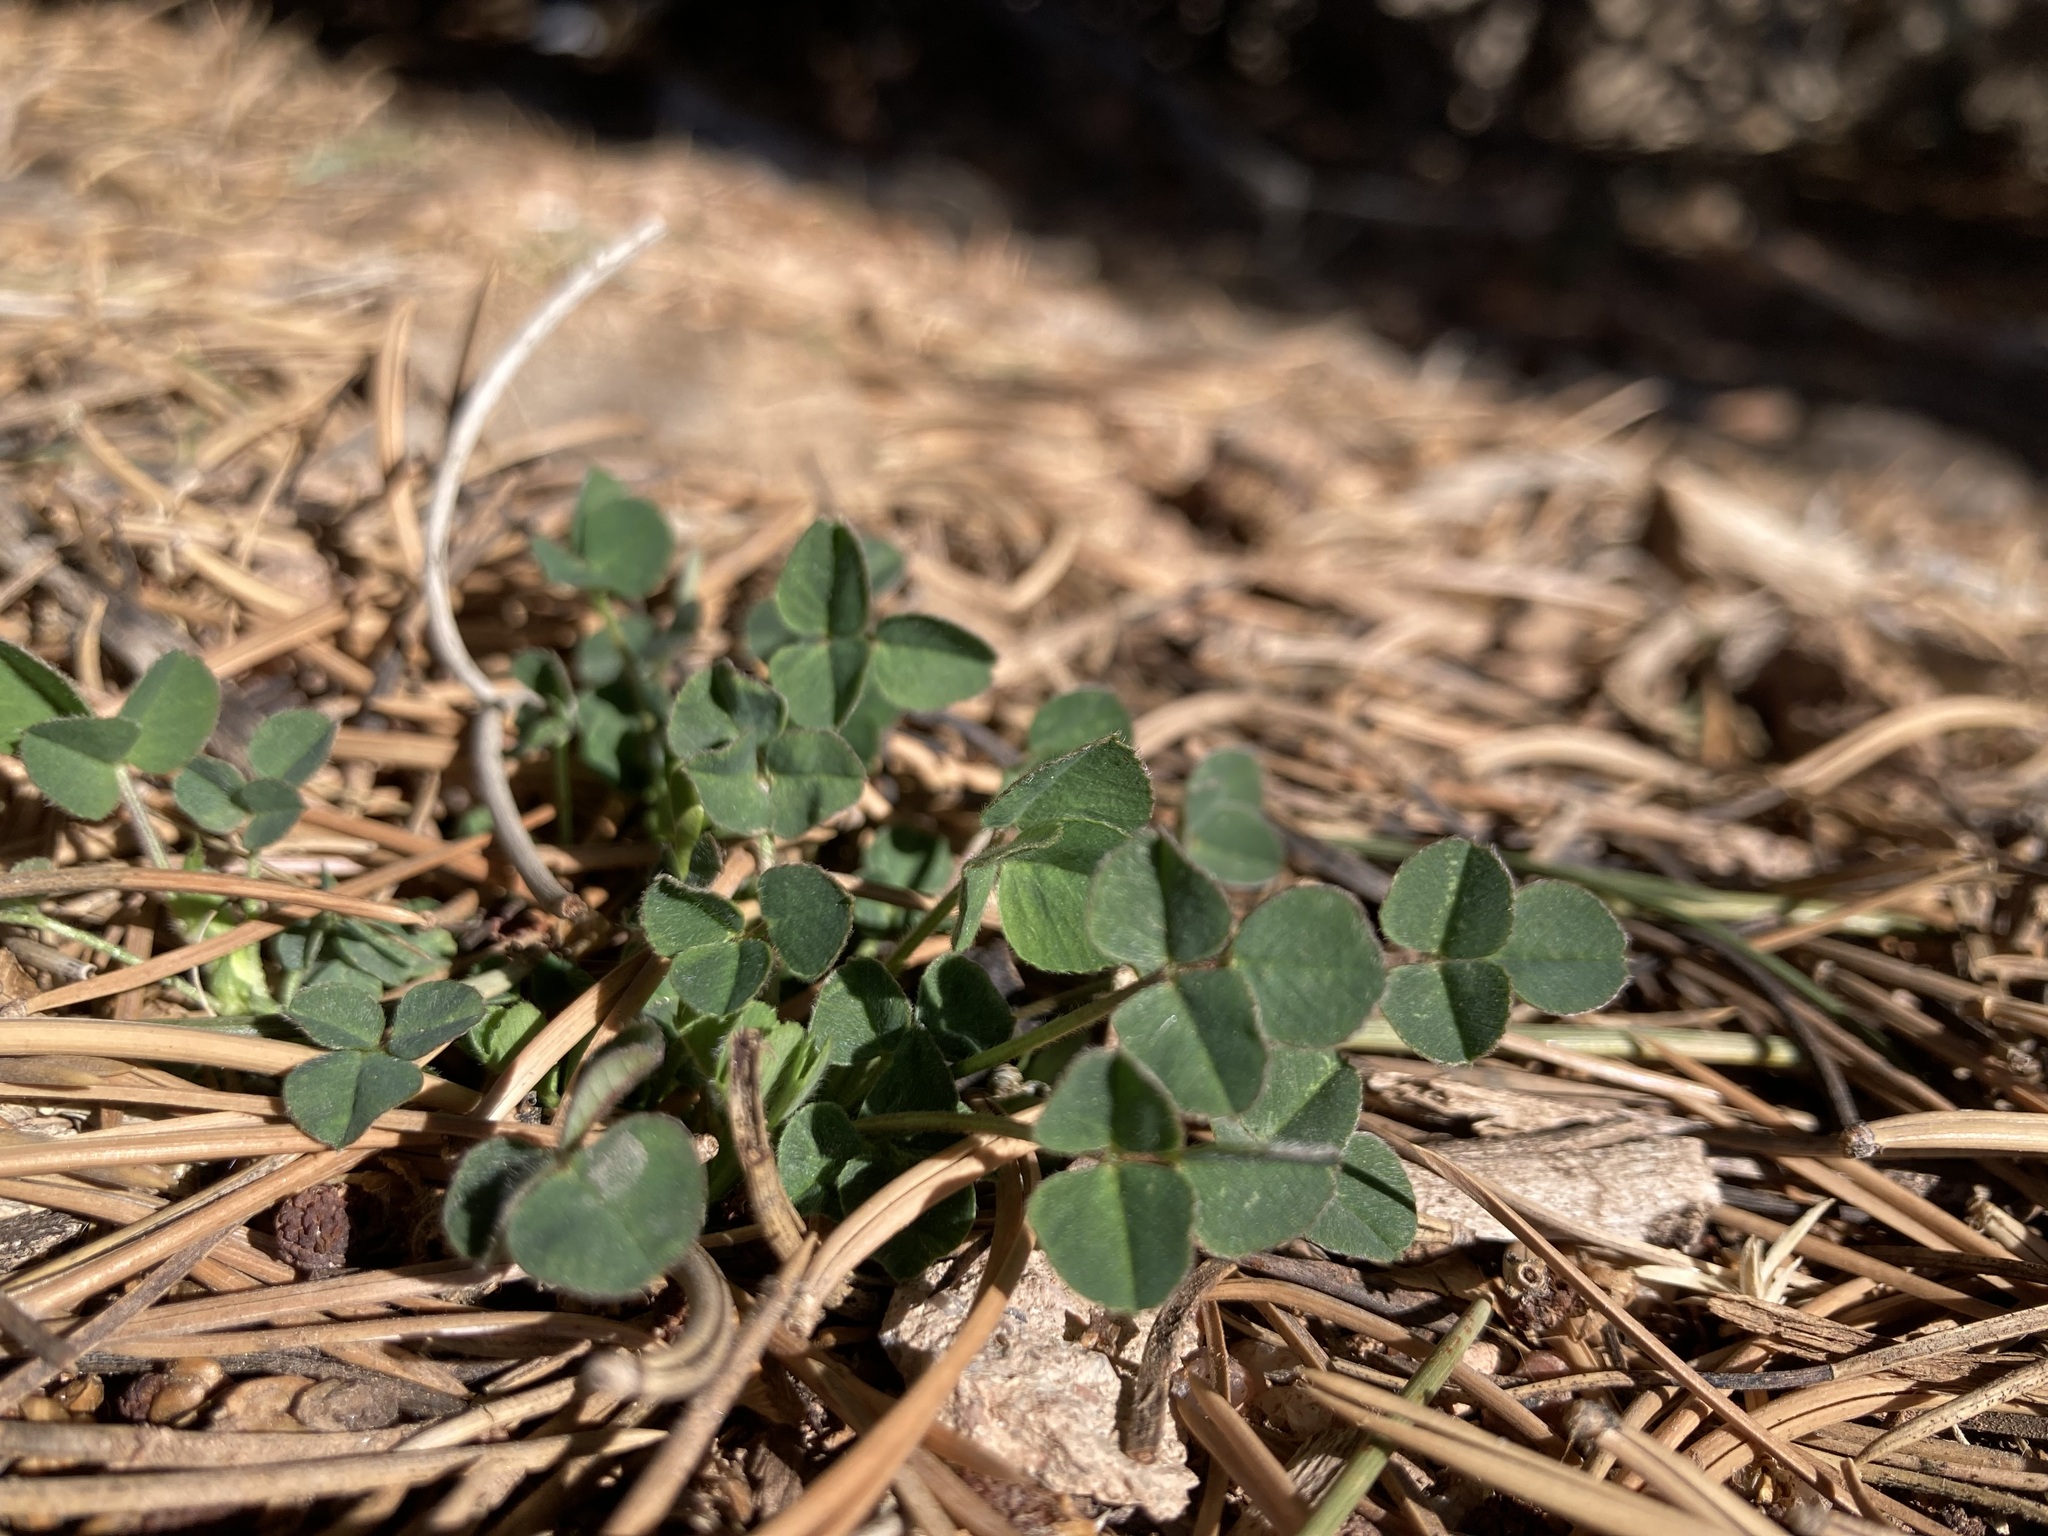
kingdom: Plantae
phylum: Tracheophyta
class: Magnoliopsida
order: Fabales
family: Fabaceae
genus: Medicago
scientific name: Medicago lupulina
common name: Black medick
